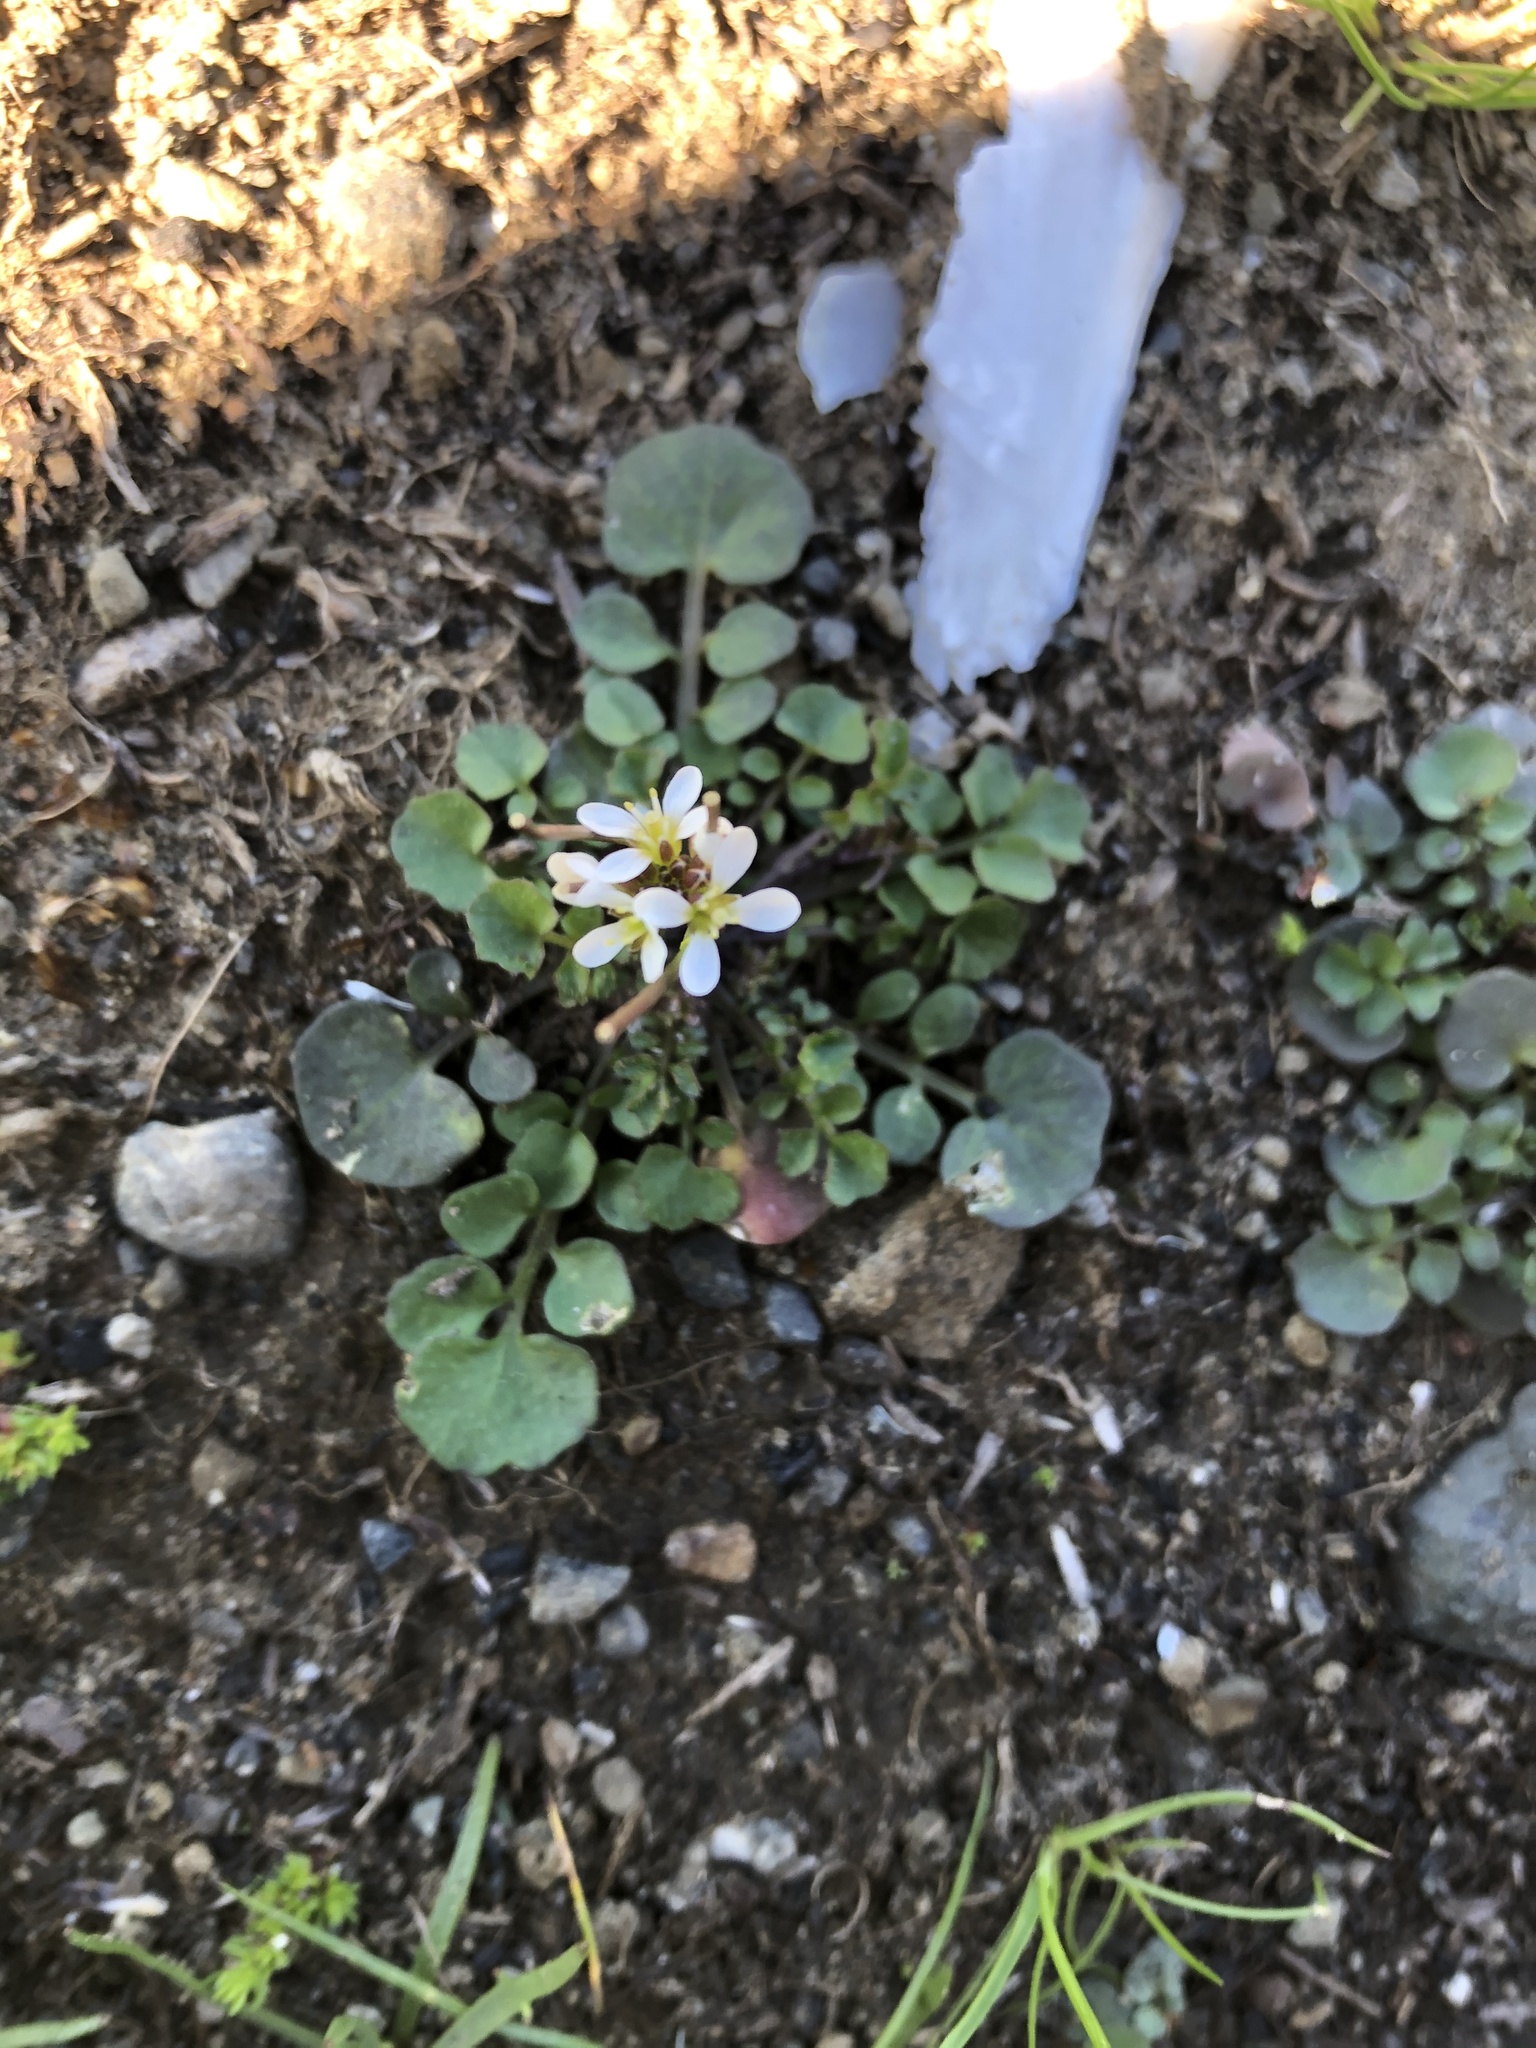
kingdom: Plantae
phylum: Tracheophyta
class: Magnoliopsida
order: Brassicales
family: Brassicaceae
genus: Cardamine
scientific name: Cardamine hirsuta
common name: Hairy bittercress
